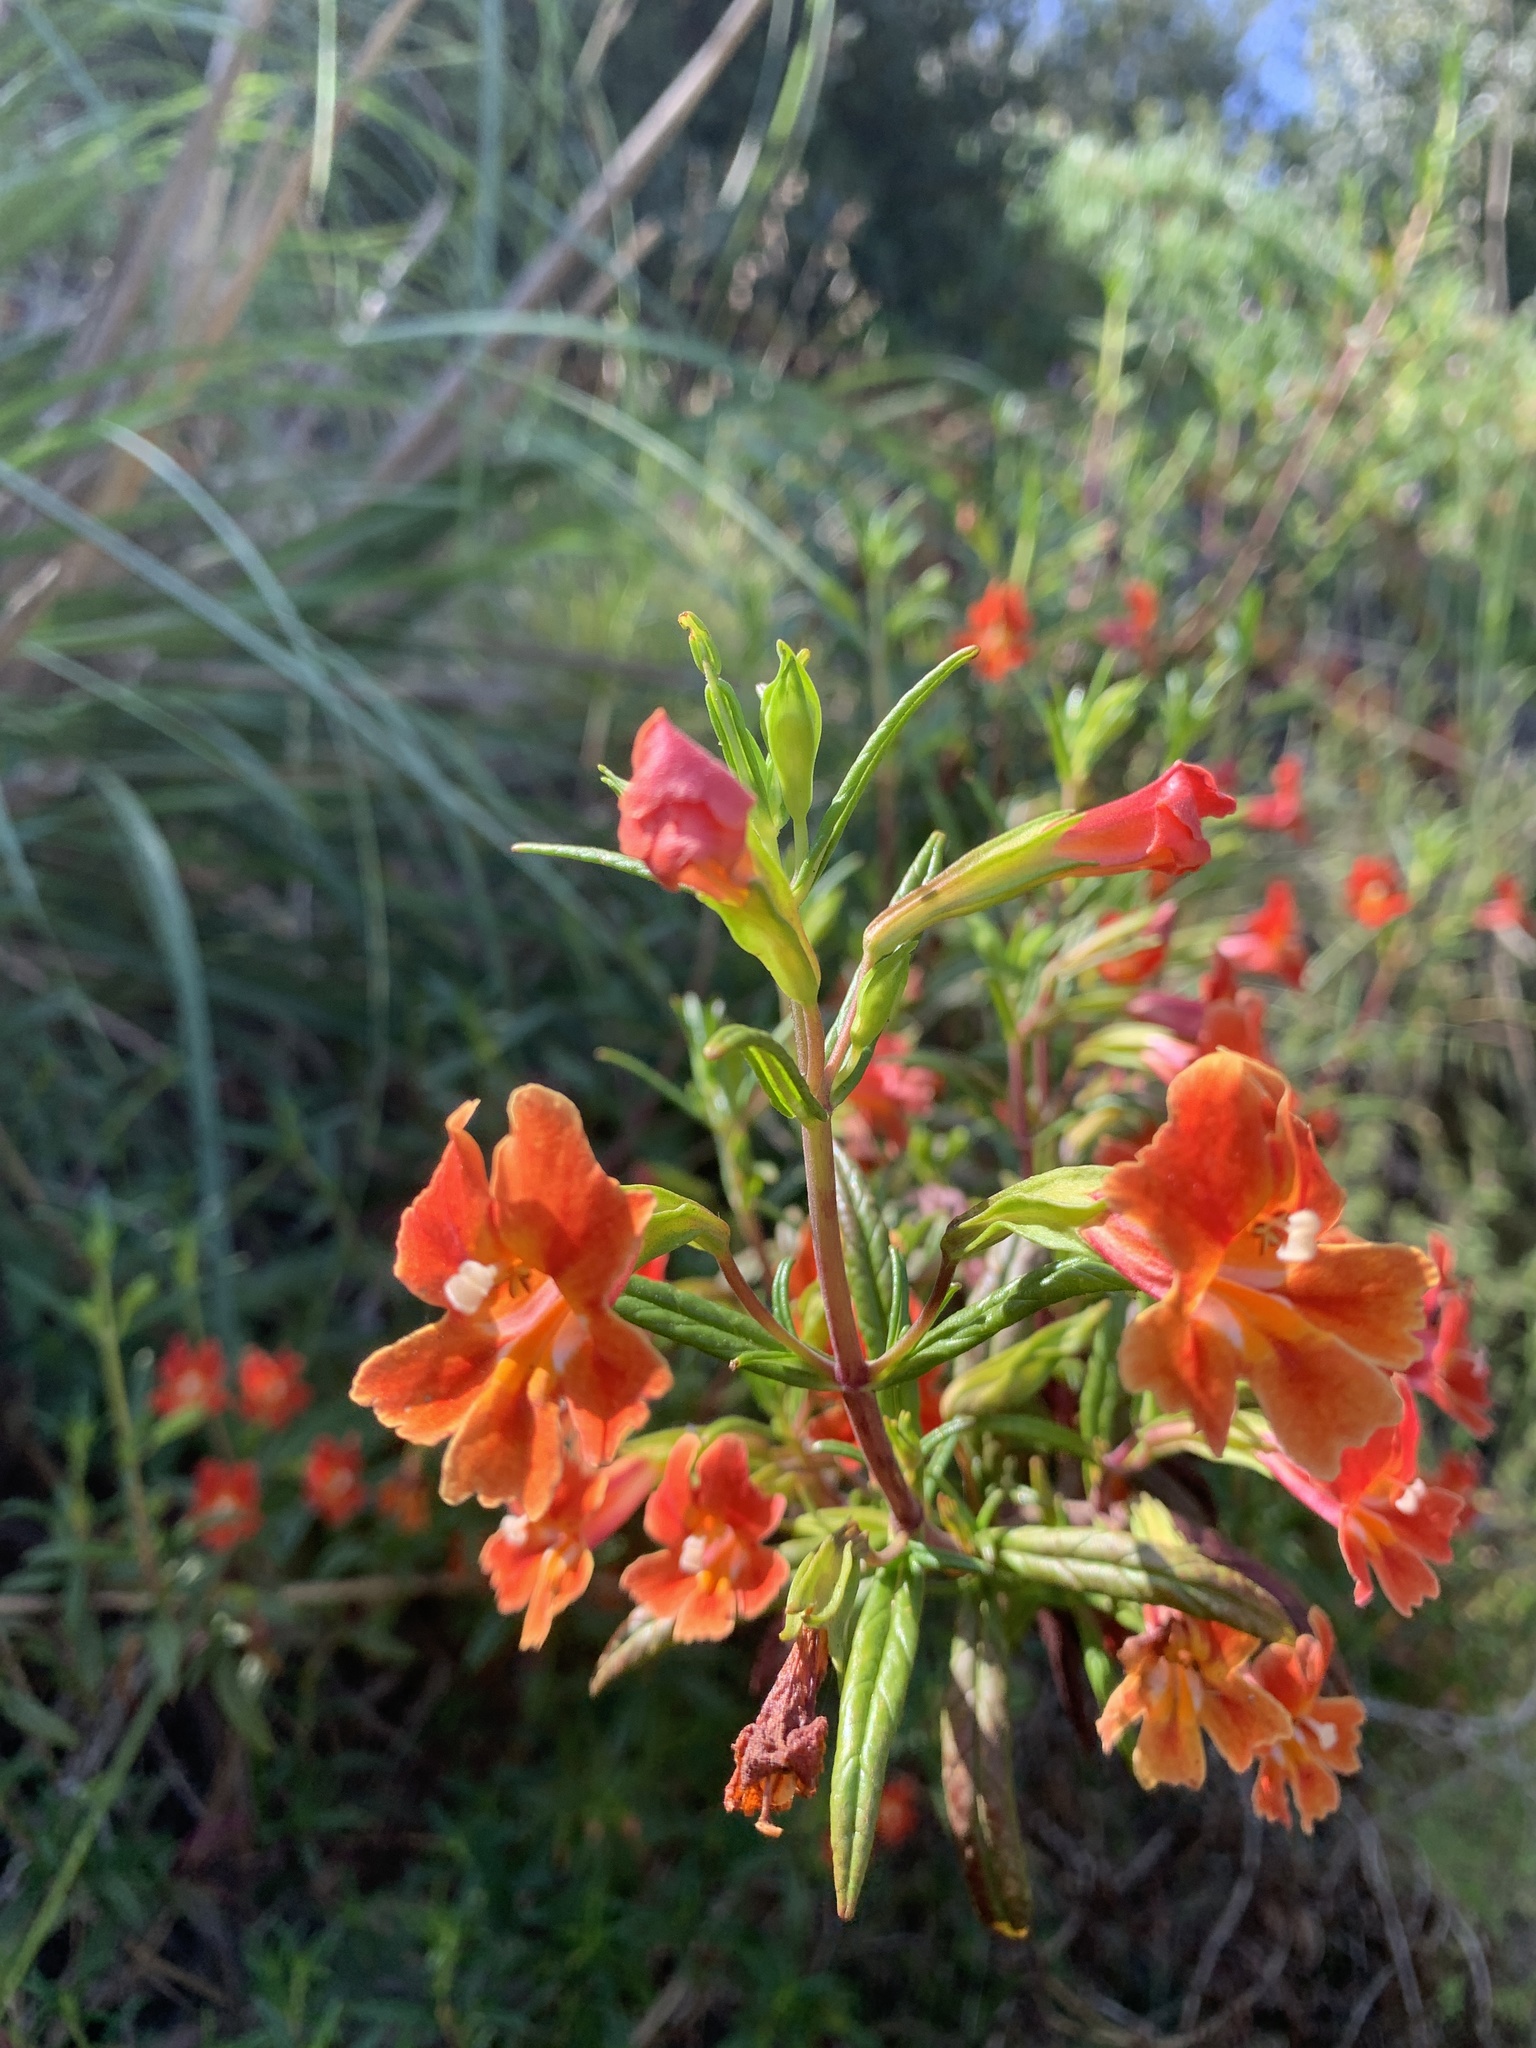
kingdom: Plantae
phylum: Tracheophyta
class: Magnoliopsida
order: Lamiales
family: Phrymaceae
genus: Diplacus
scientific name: Diplacus puniceus
